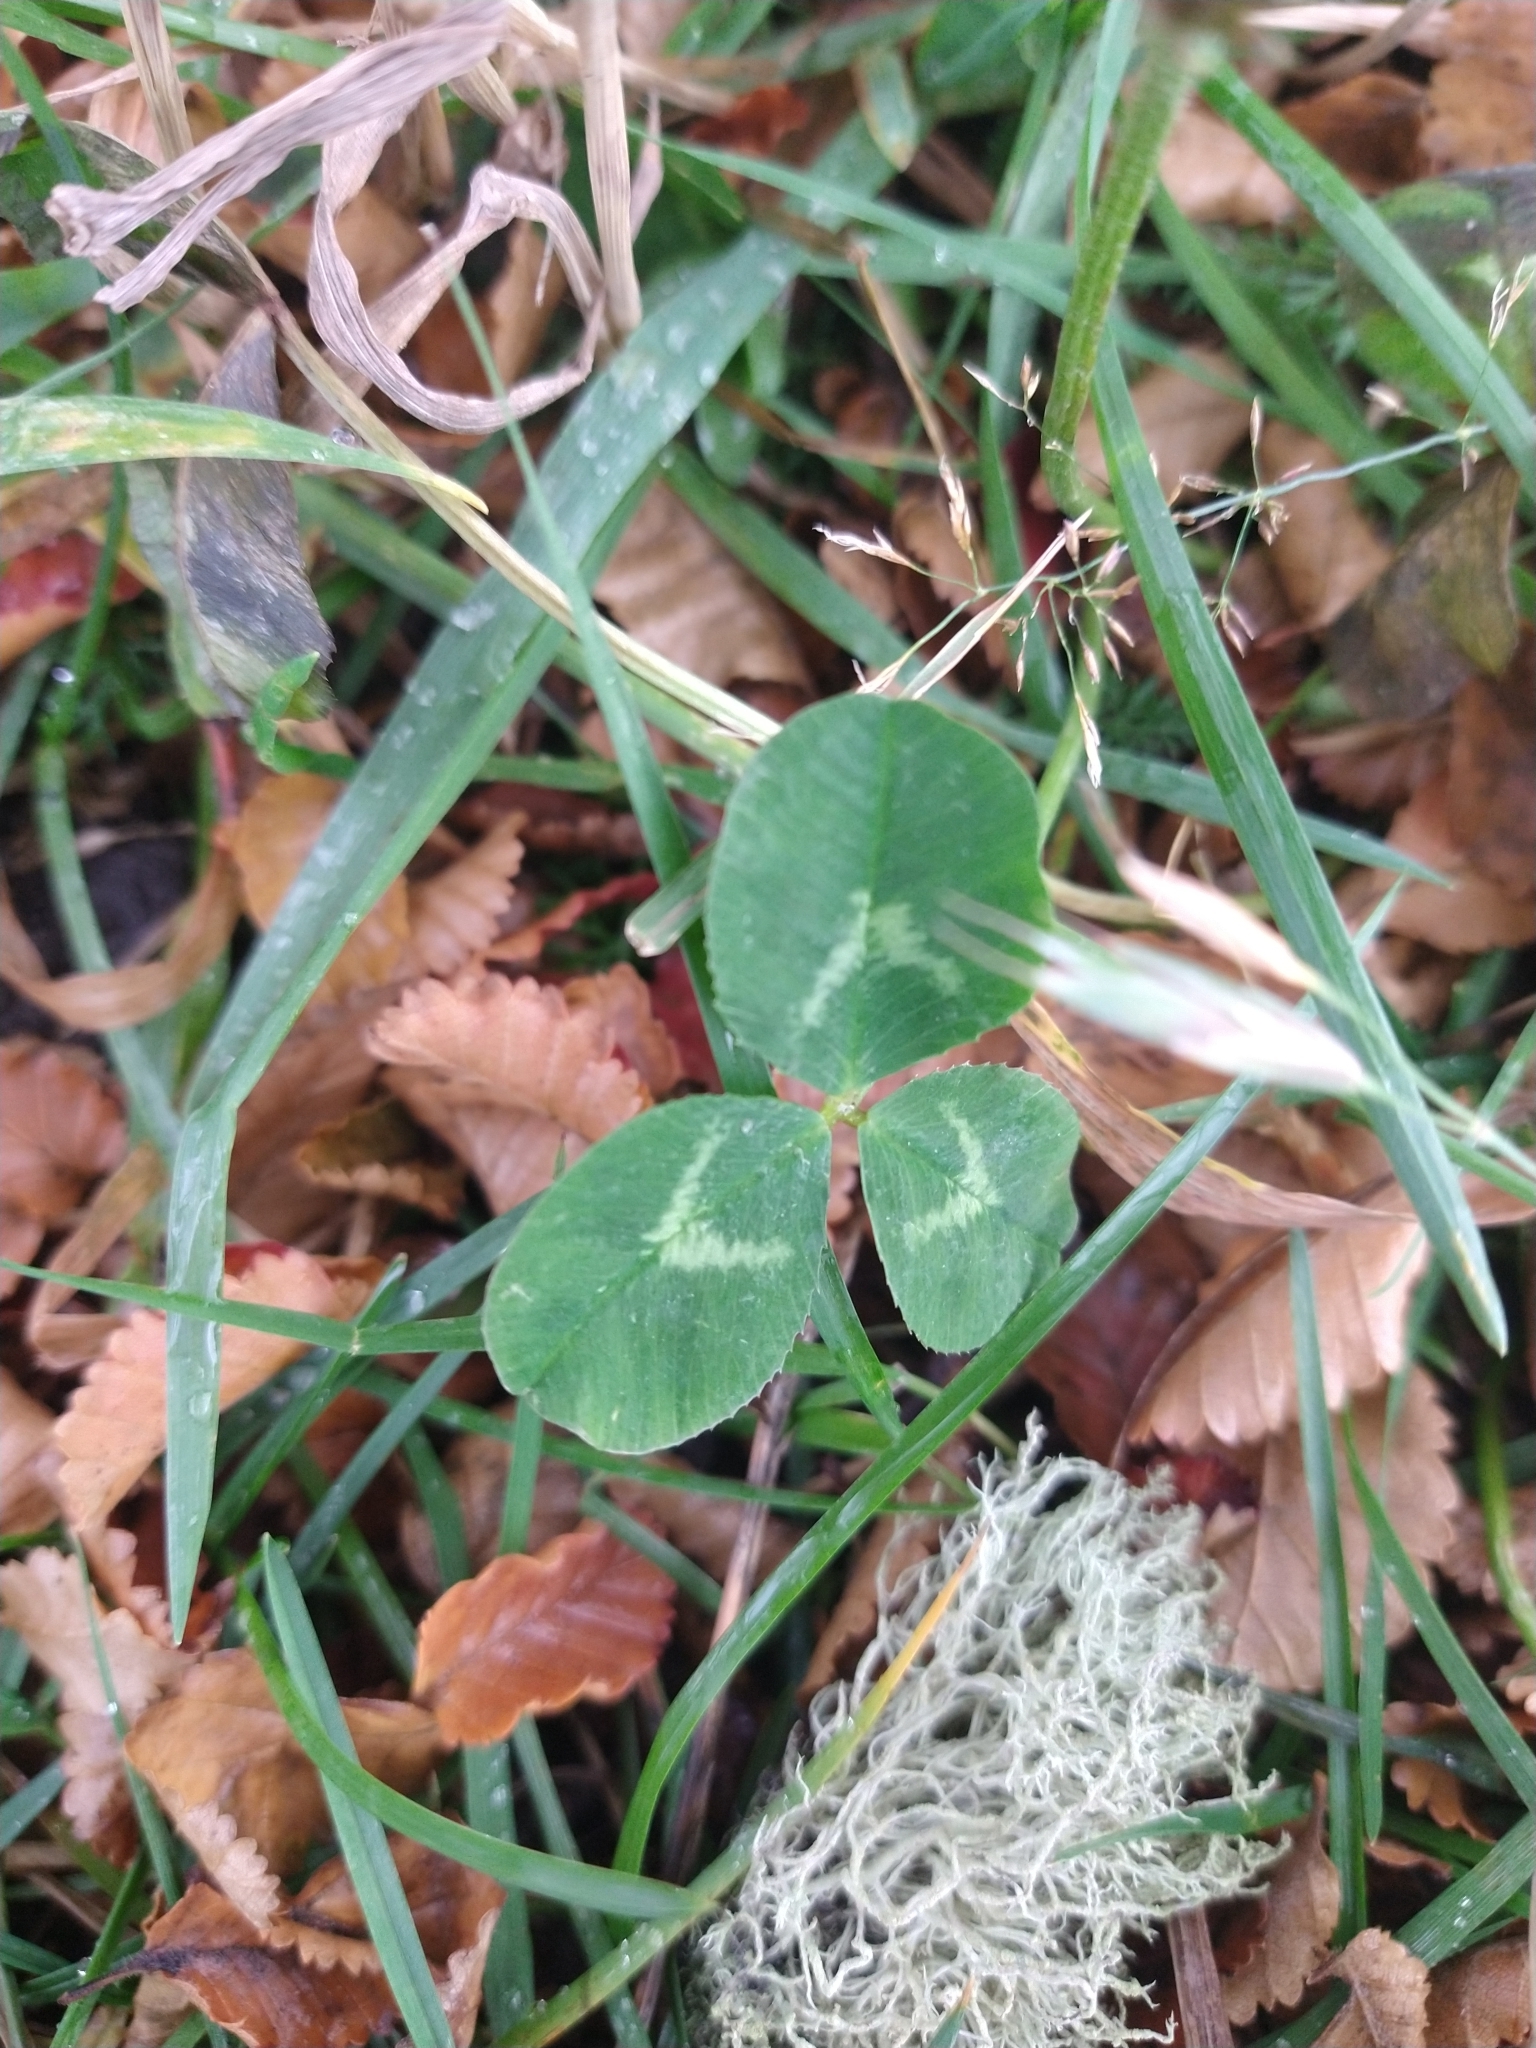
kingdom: Plantae
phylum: Tracheophyta
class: Magnoliopsida
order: Fabales
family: Fabaceae
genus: Trifolium
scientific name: Trifolium repens
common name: White clover
